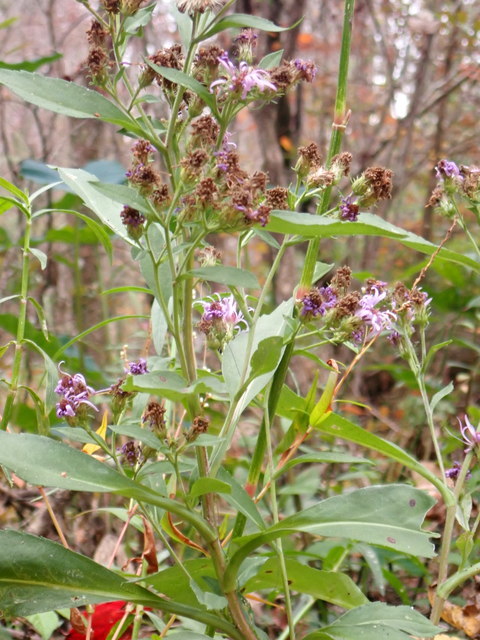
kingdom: Plantae
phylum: Tracheophyta
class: Magnoliopsida
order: Asterales
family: Asteraceae
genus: Symphyotrichum
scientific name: Symphyotrichum elliottii
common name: Southern swamp aster
